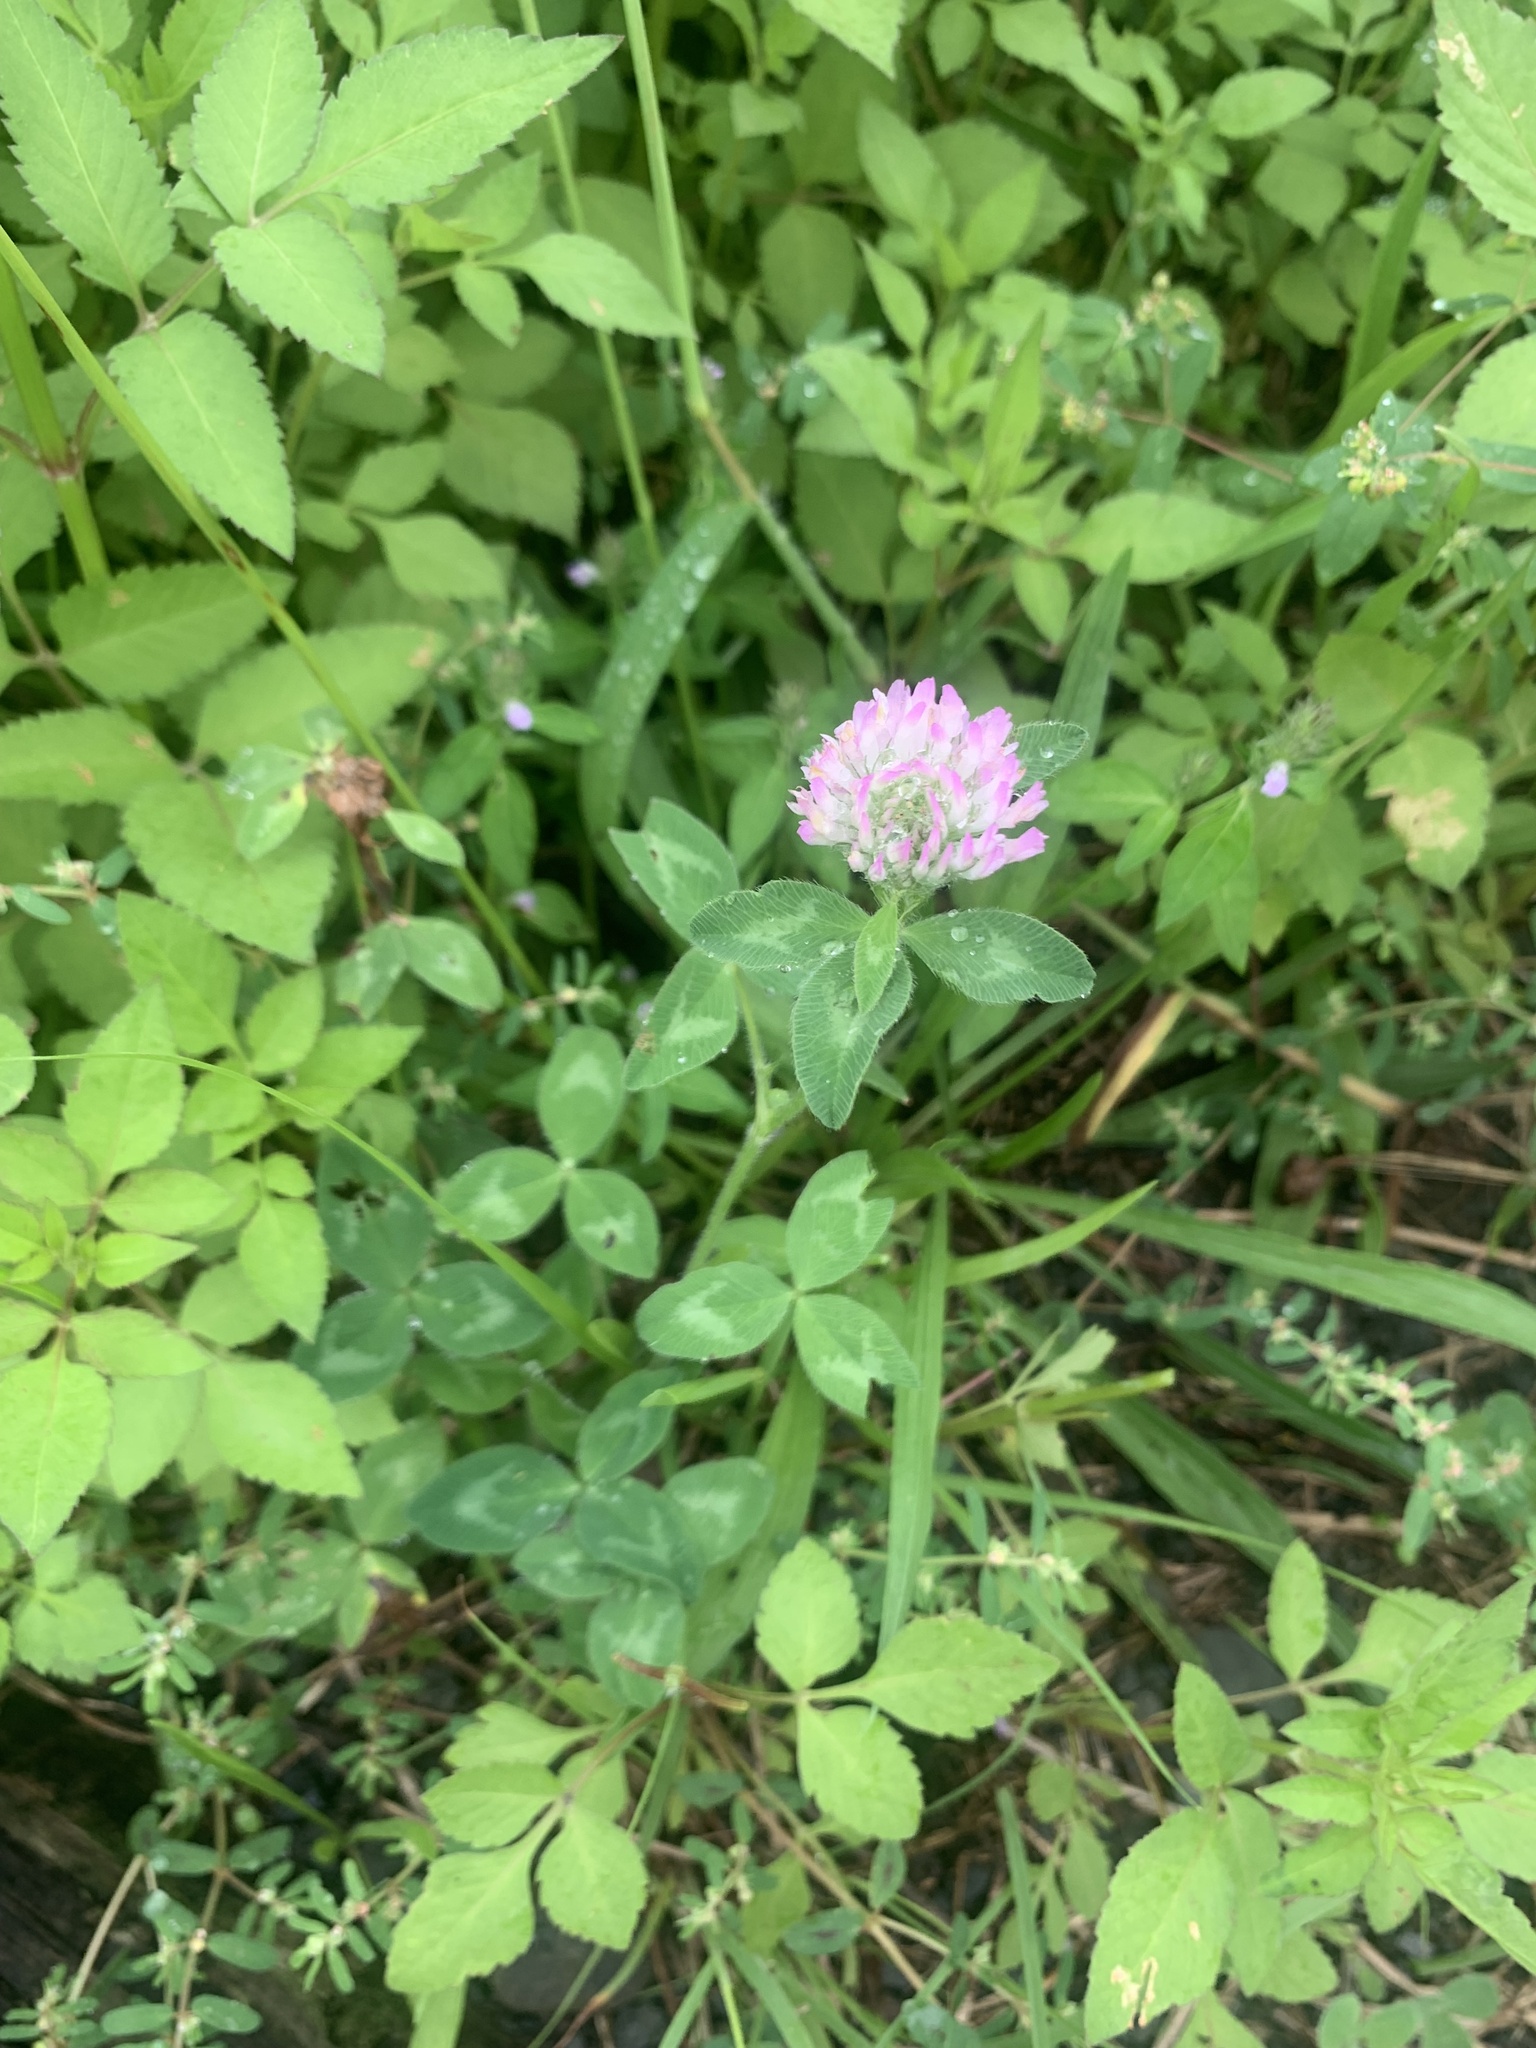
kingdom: Plantae
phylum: Tracheophyta
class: Magnoliopsida
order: Fabales
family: Fabaceae
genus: Trifolium
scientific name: Trifolium pratense
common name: Red clover
